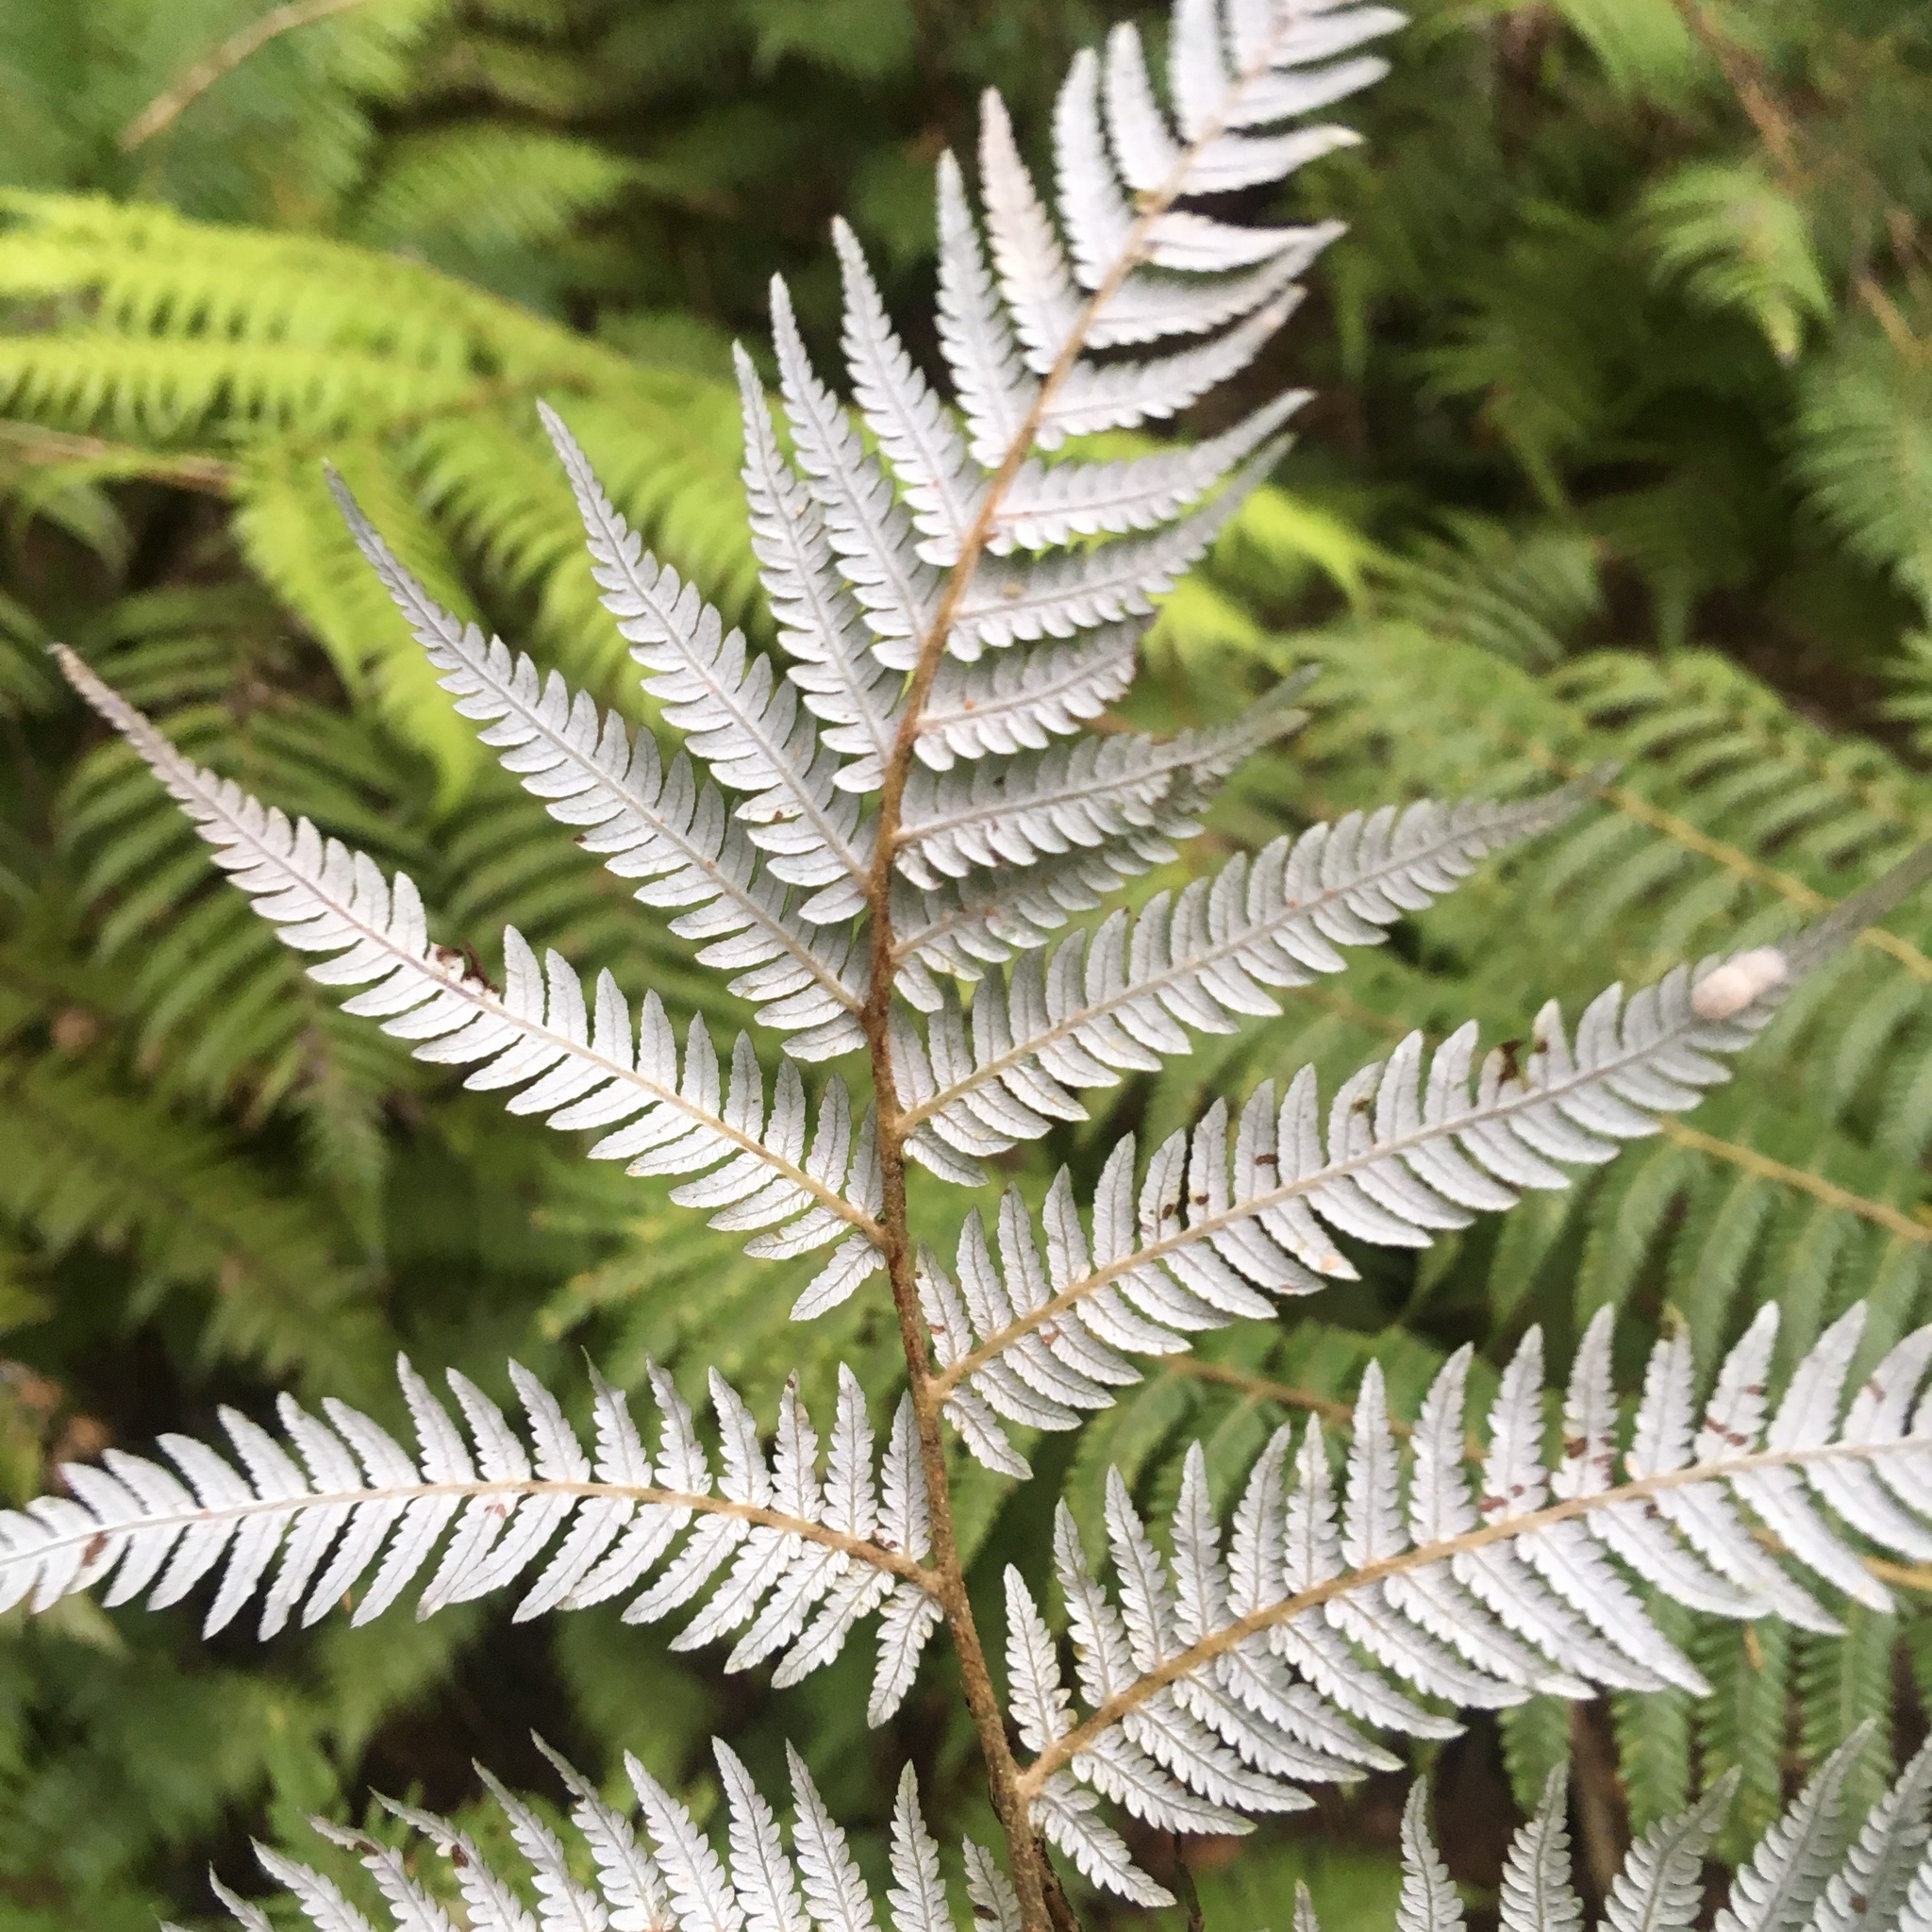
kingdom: Plantae
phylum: Tracheophyta
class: Polypodiopsida
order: Cyatheales
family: Cyatheaceae
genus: Alsophila
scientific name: Alsophila dealbata
